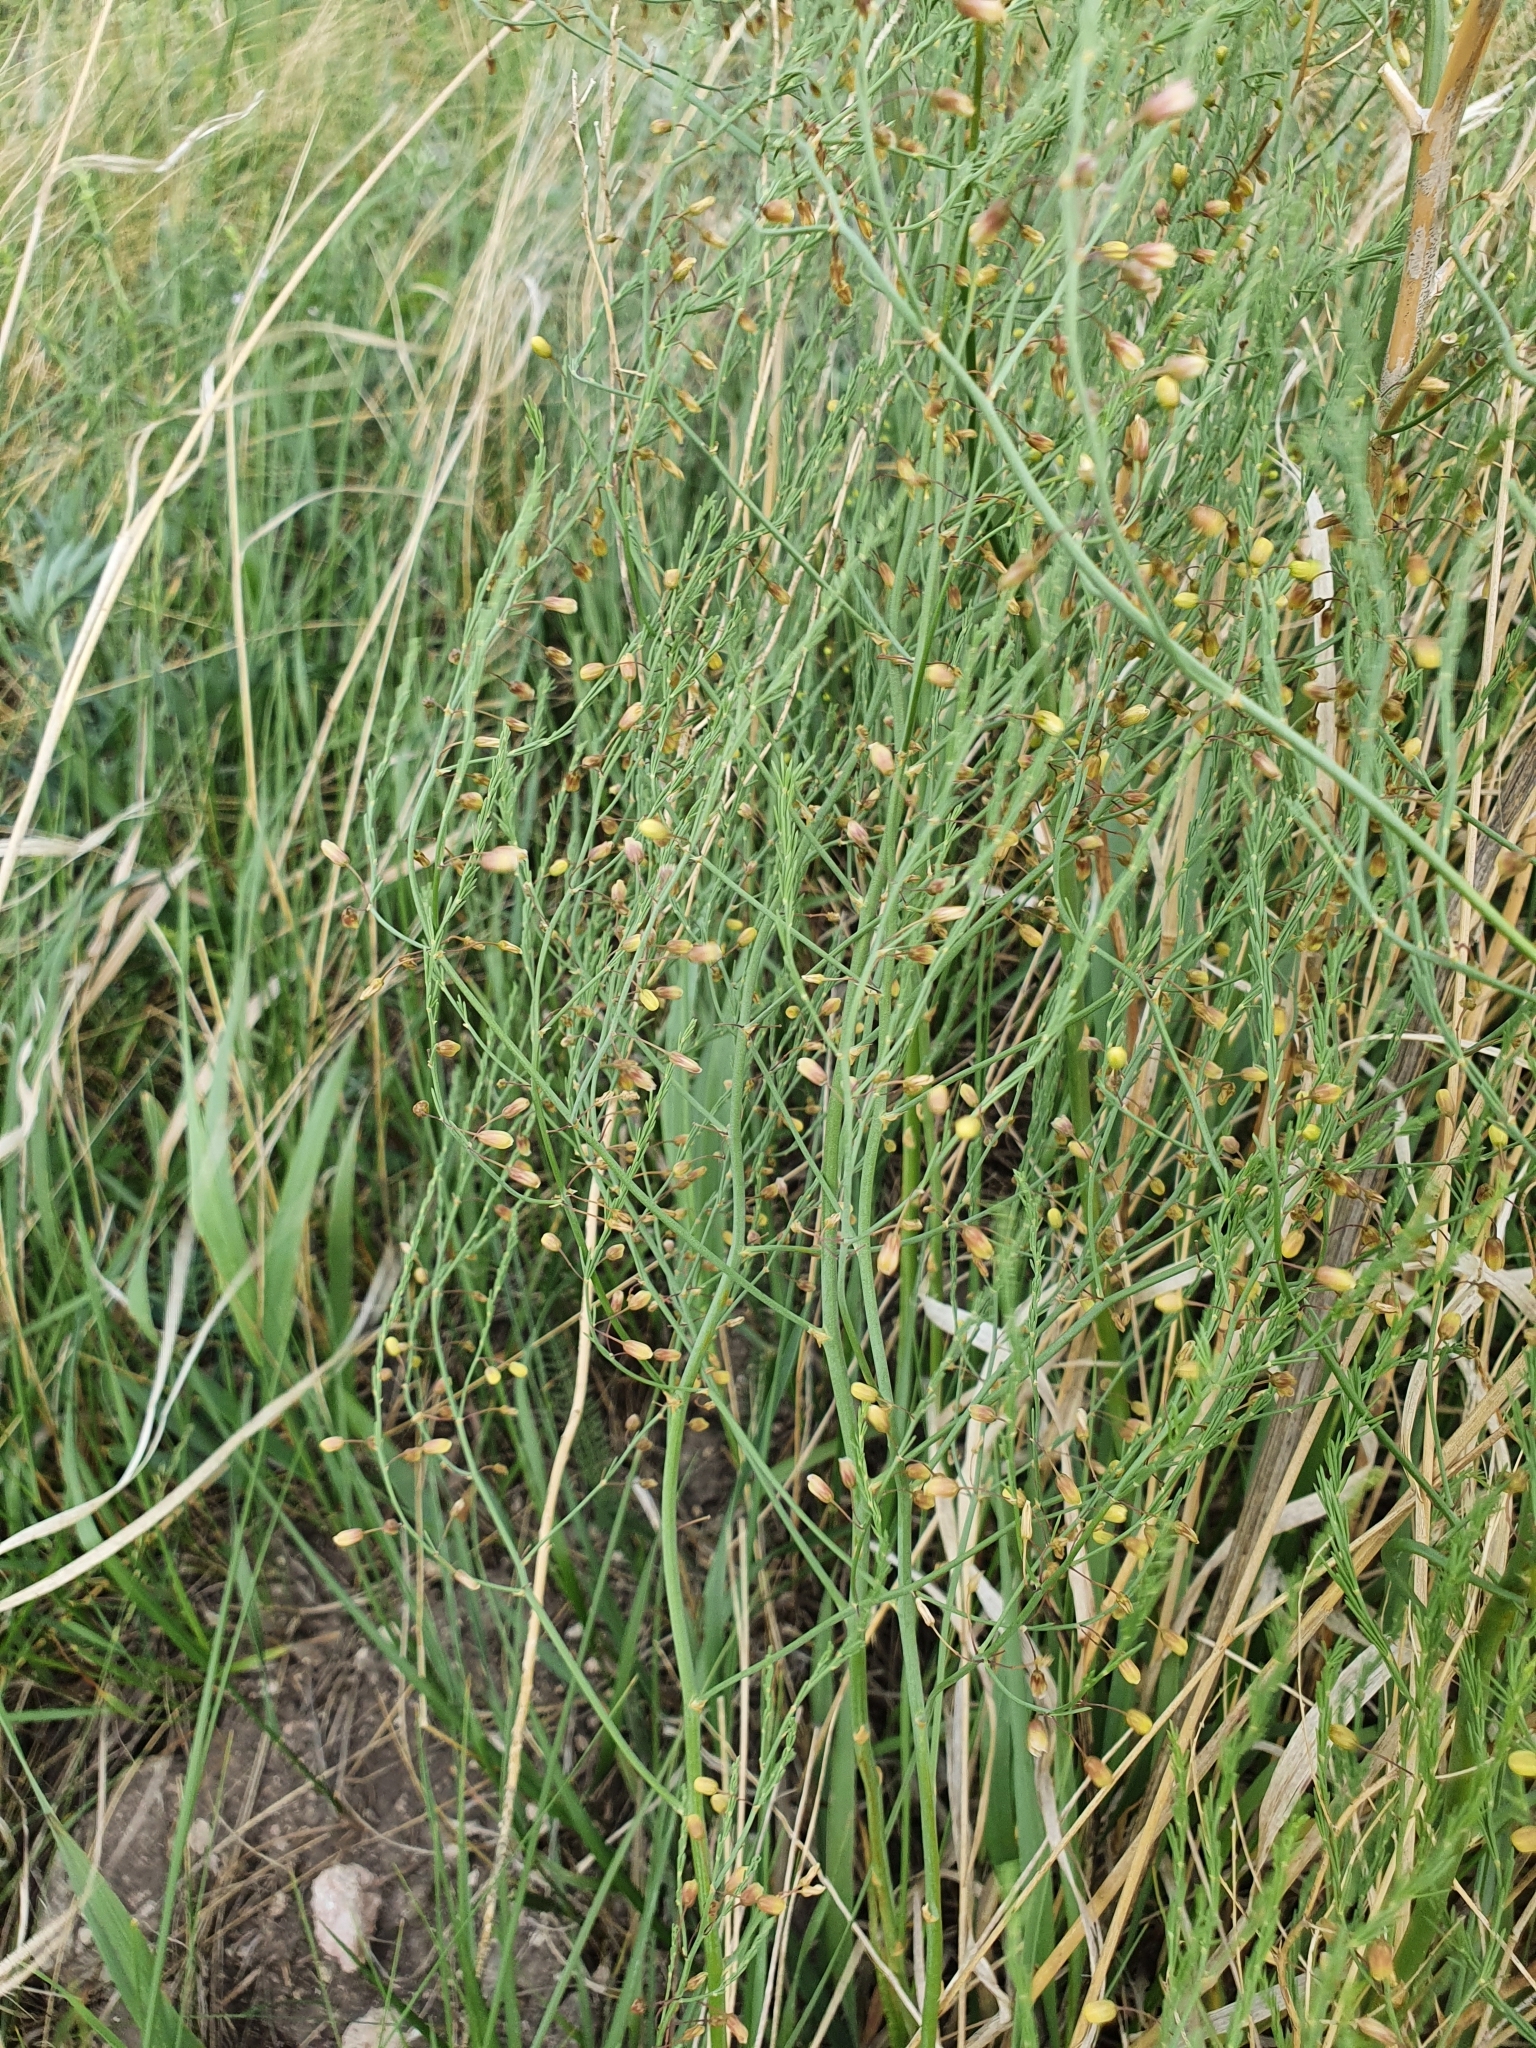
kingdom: Plantae
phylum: Tracheophyta
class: Liliopsida
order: Asparagales
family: Asparagaceae
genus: Asparagus
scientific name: Asparagus officinalis
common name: Garden asparagus
